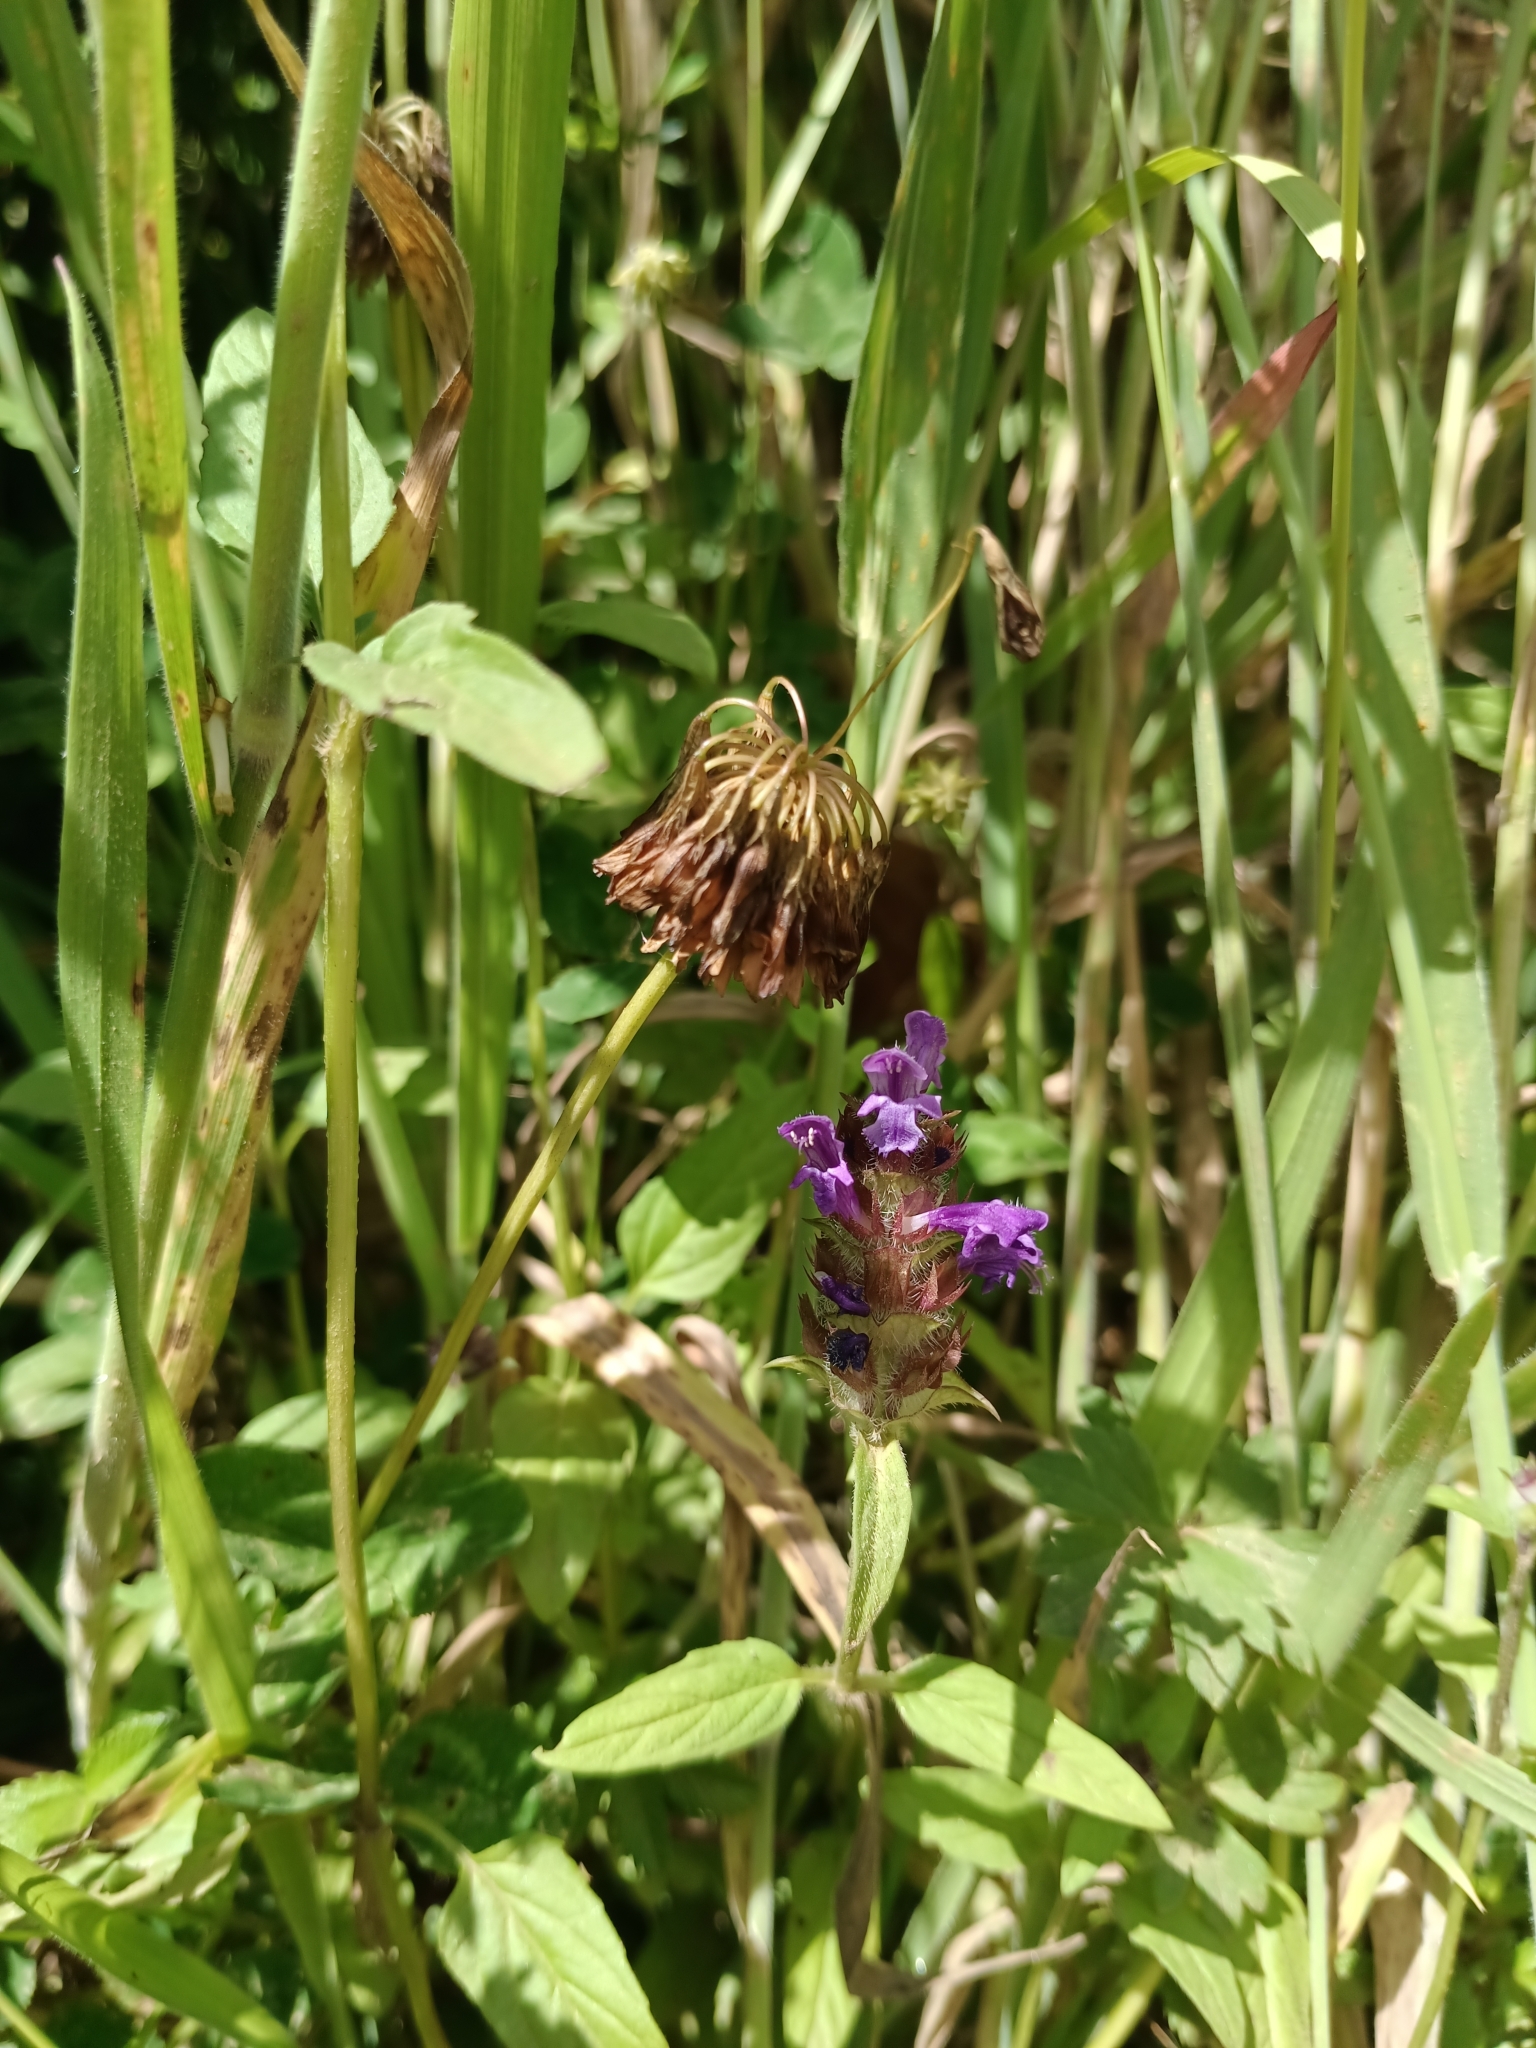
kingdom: Plantae
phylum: Tracheophyta
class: Magnoliopsida
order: Lamiales
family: Lamiaceae
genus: Prunella
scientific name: Prunella vulgaris
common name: Heal-all
